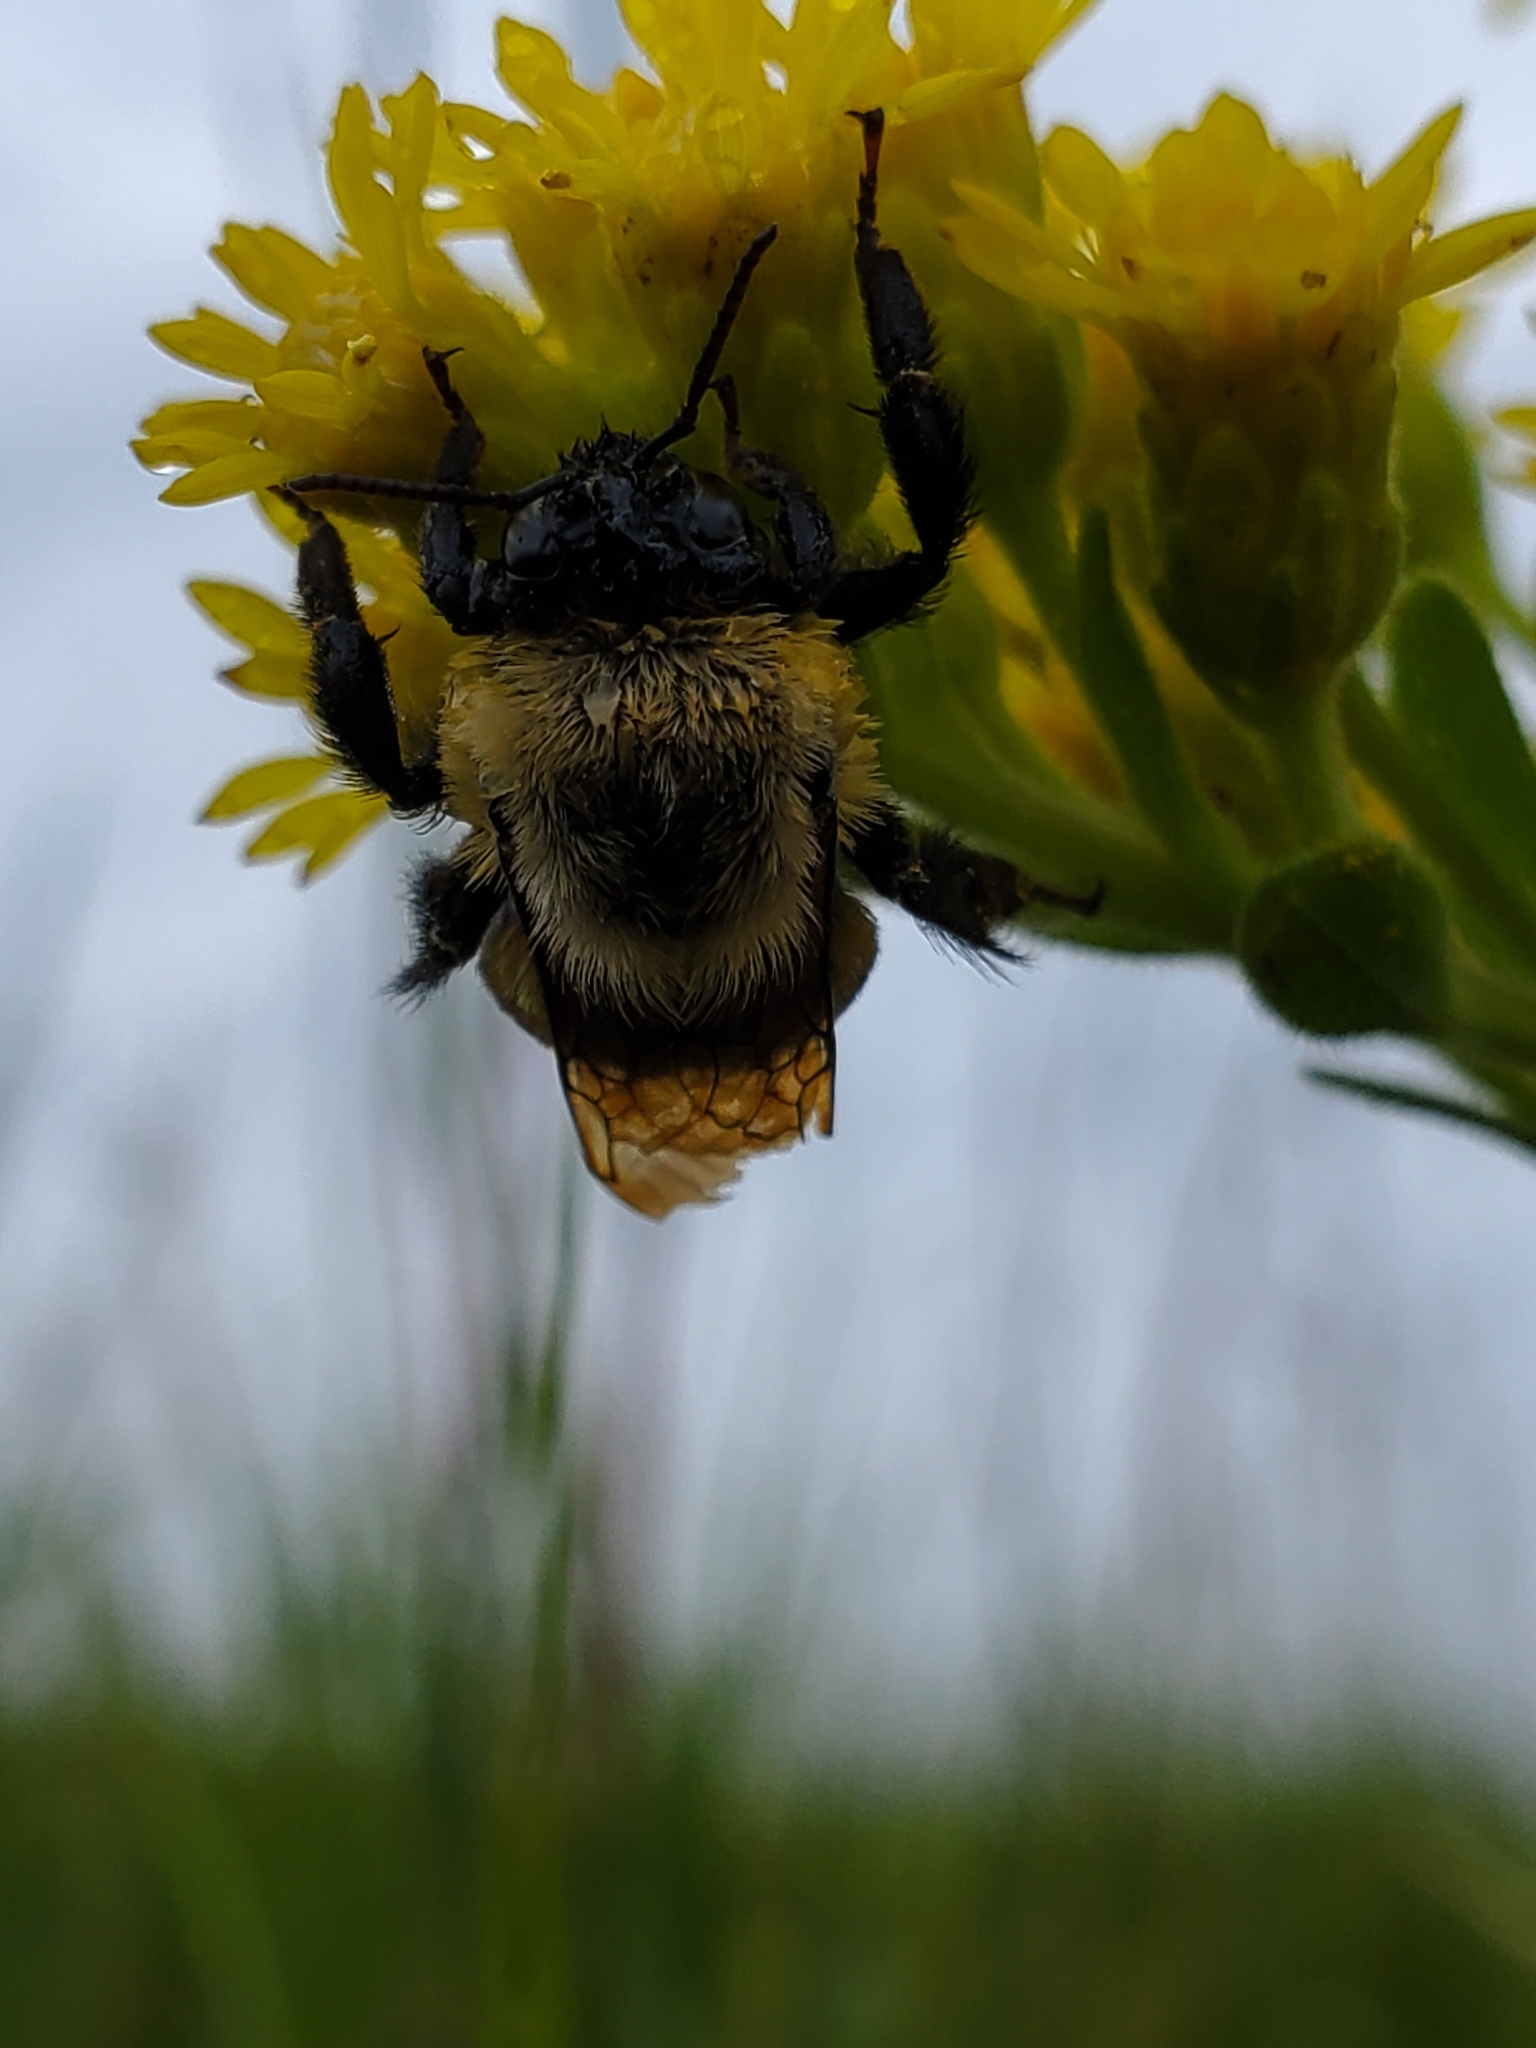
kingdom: Animalia
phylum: Arthropoda
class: Insecta
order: Hymenoptera
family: Apidae
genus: Bombus
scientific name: Bombus griseocollis
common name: Brown-belted bumble bee
